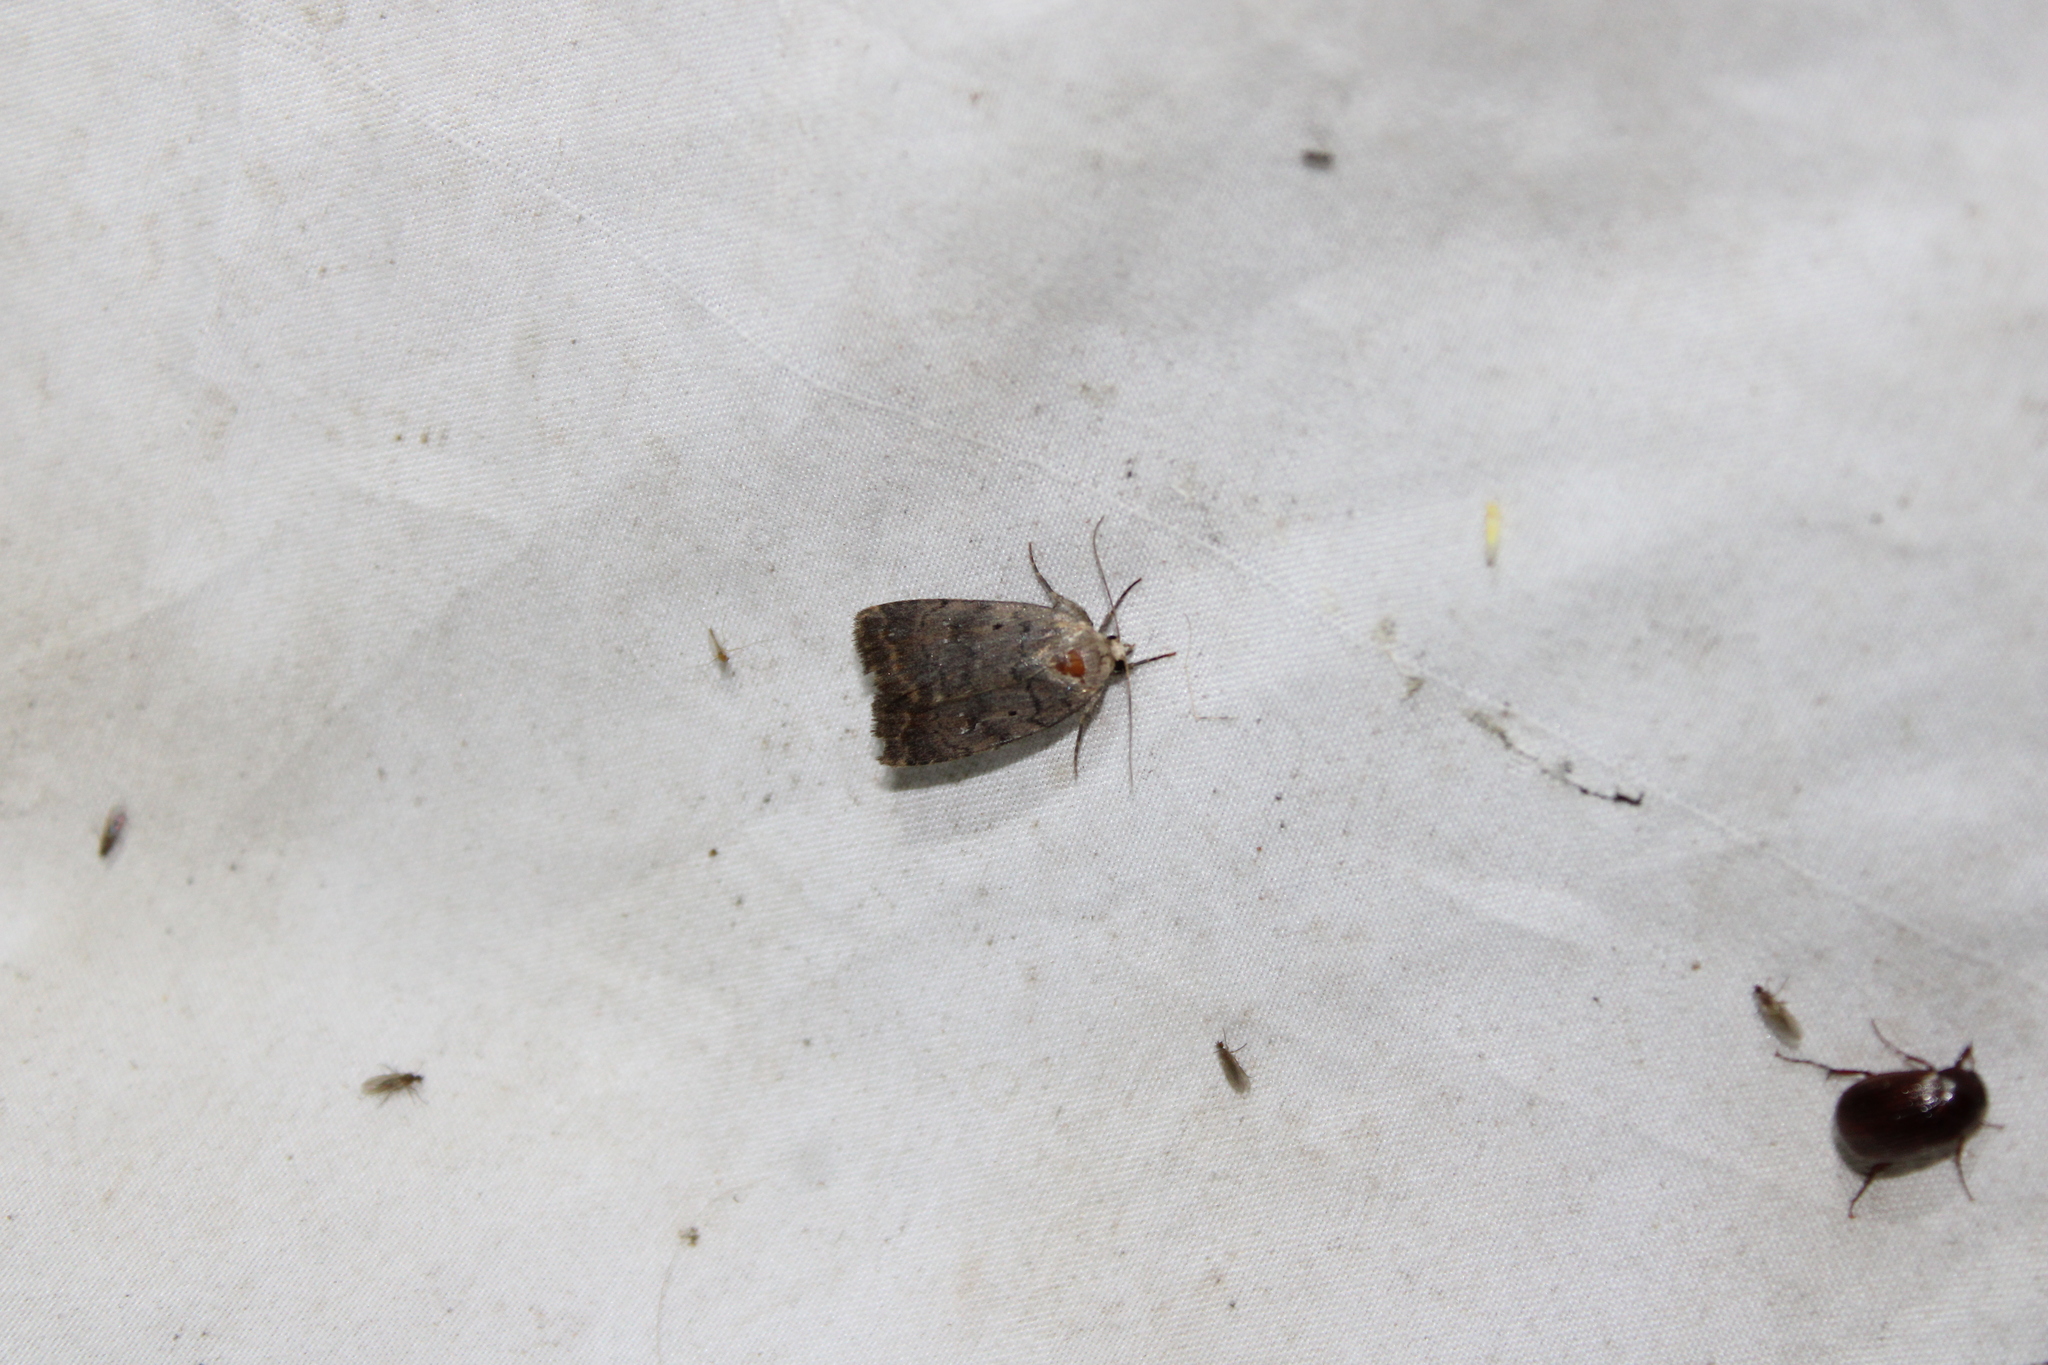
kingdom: Animalia
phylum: Arthropoda
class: Insecta
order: Lepidoptera
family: Noctuidae
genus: Athetis
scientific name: Athetis tarda
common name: Slowpoke moth
